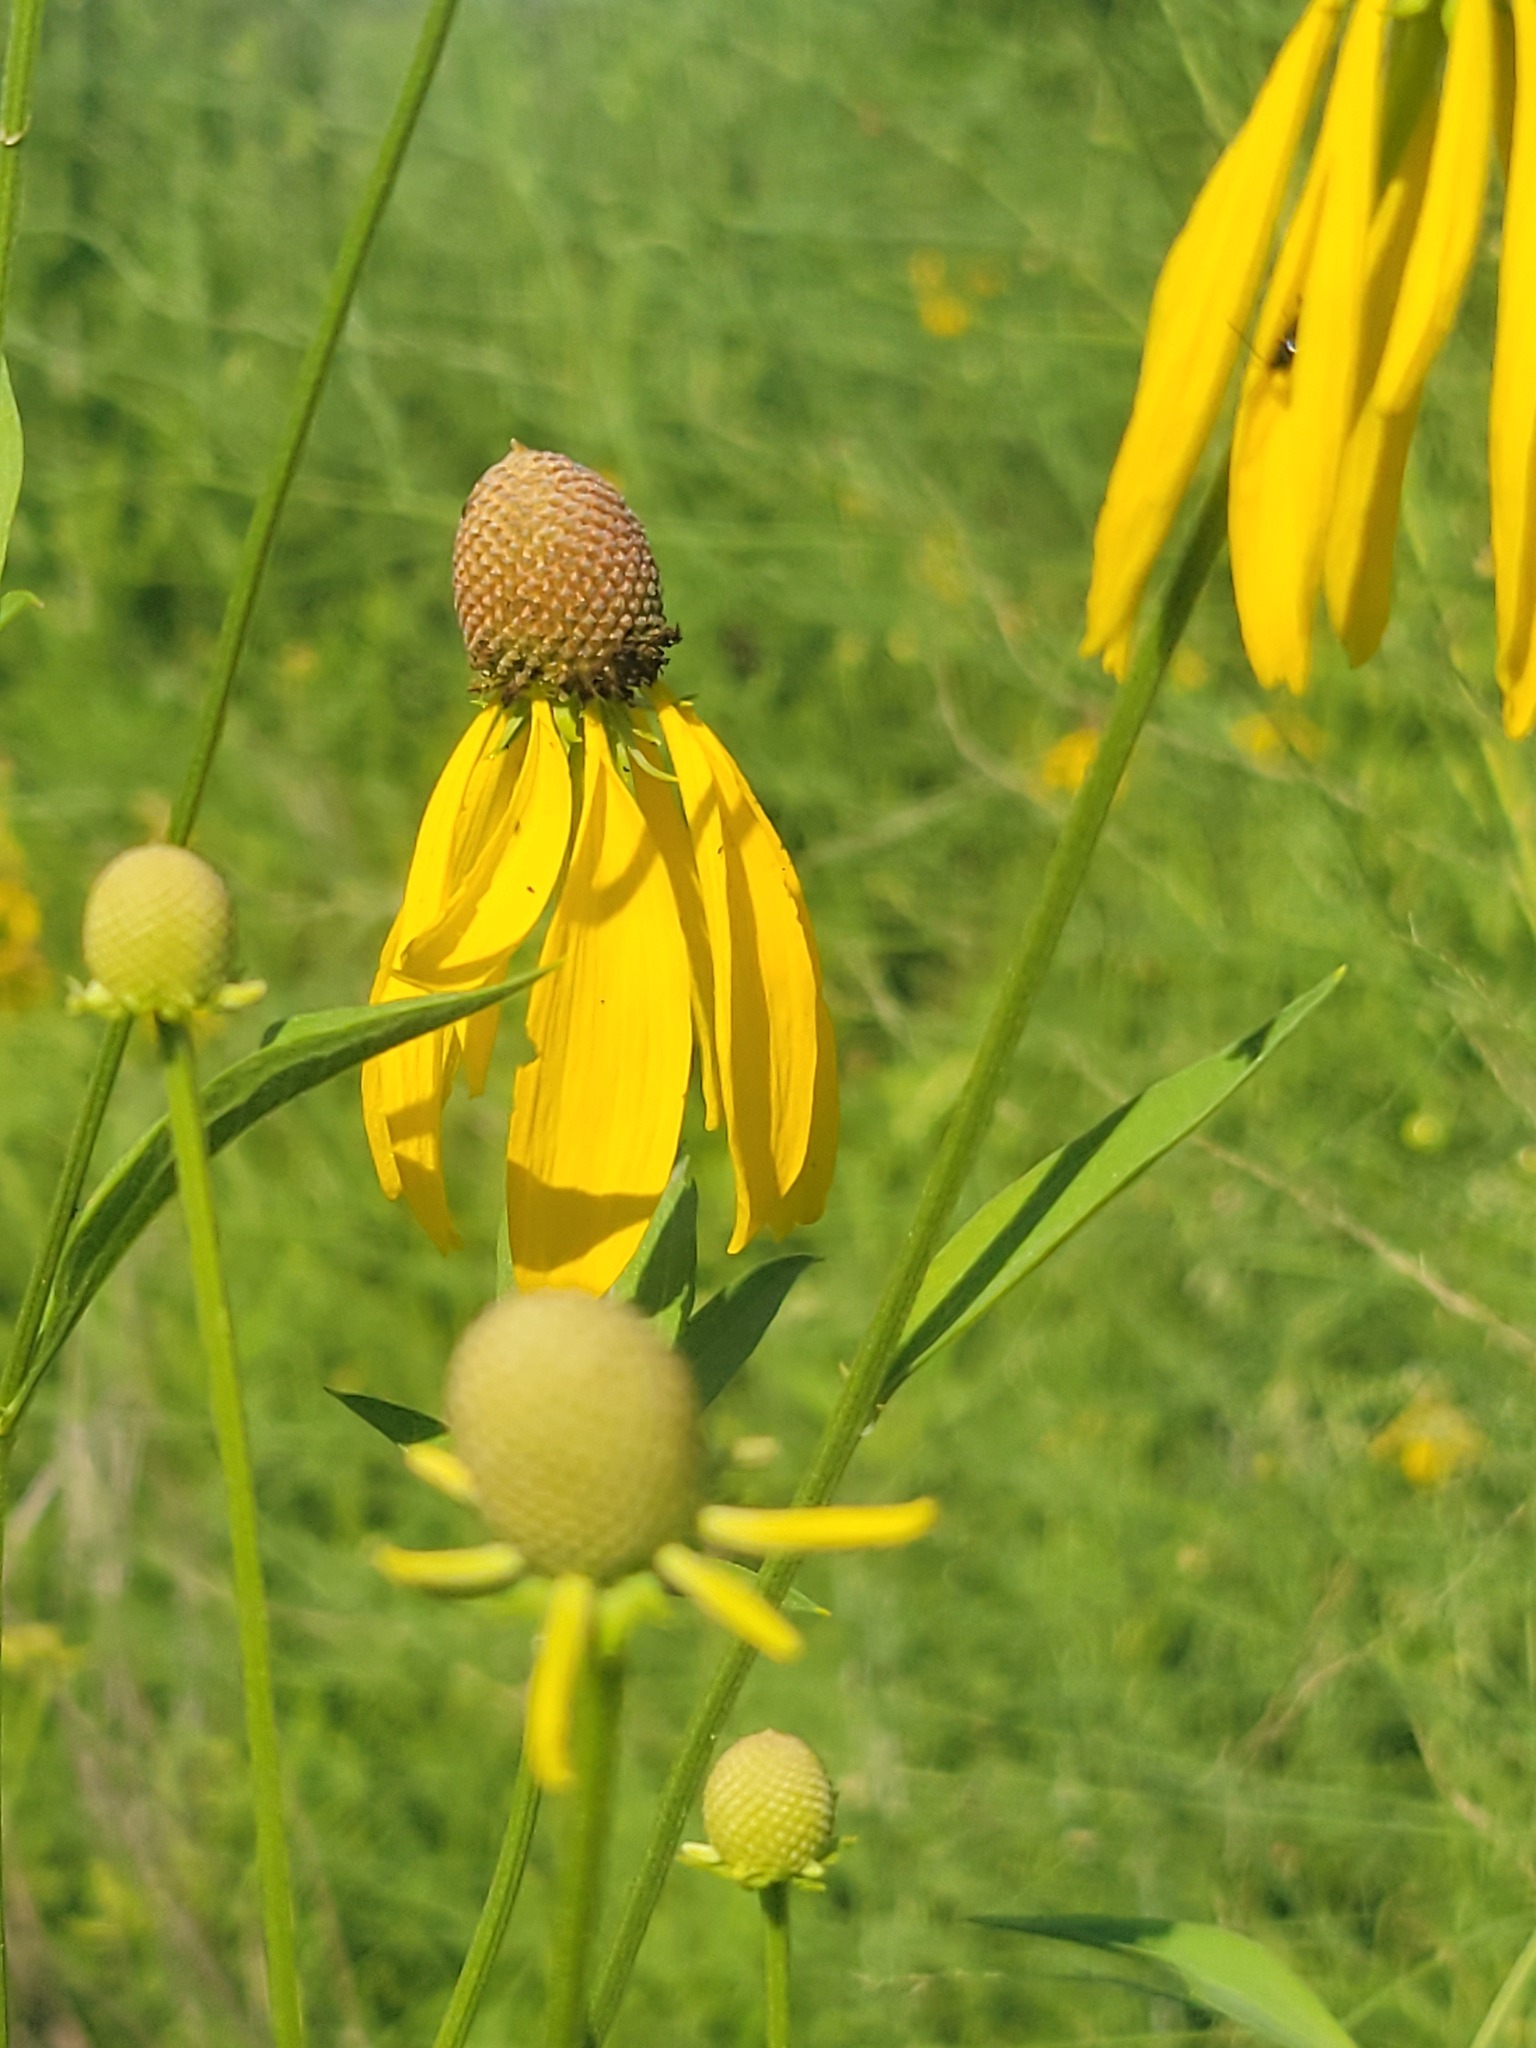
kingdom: Plantae
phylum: Tracheophyta
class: Magnoliopsida
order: Asterales
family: Asteraceae
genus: Ratibida
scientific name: Ratibida pinnata
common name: Drooping prairie-coneflower
